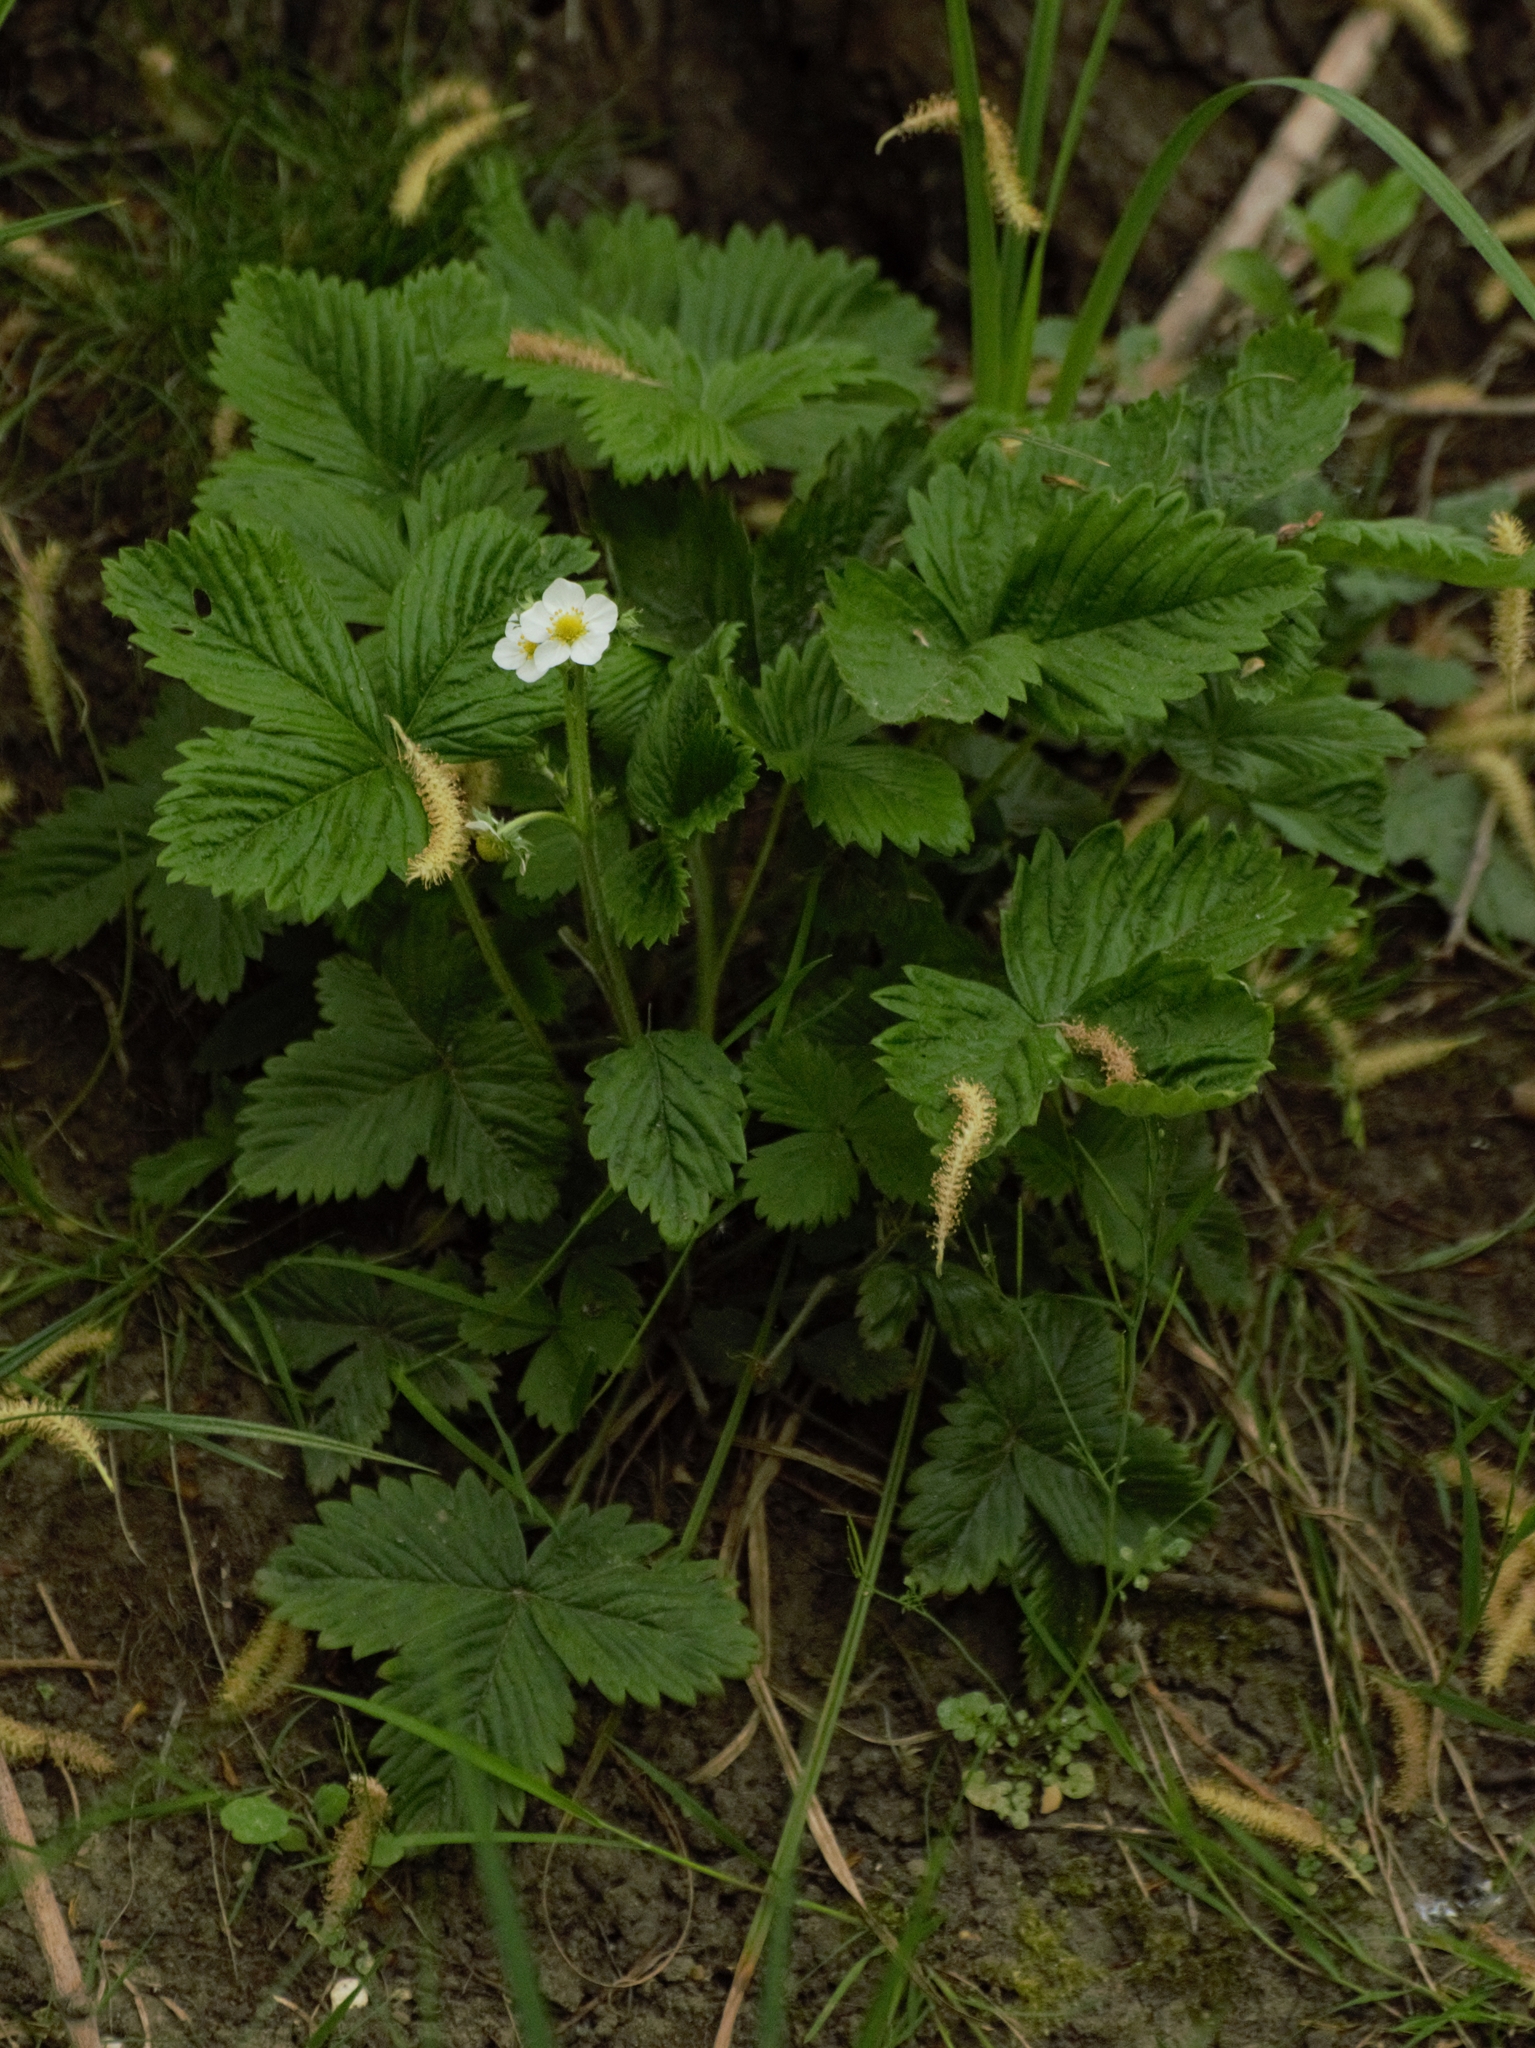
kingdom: Plantae
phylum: Tracheophyta
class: Magnoliopsida
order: Rosales
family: Rosaceae
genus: Fragaria
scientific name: Fragaria vesca
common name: Wild strawberry
